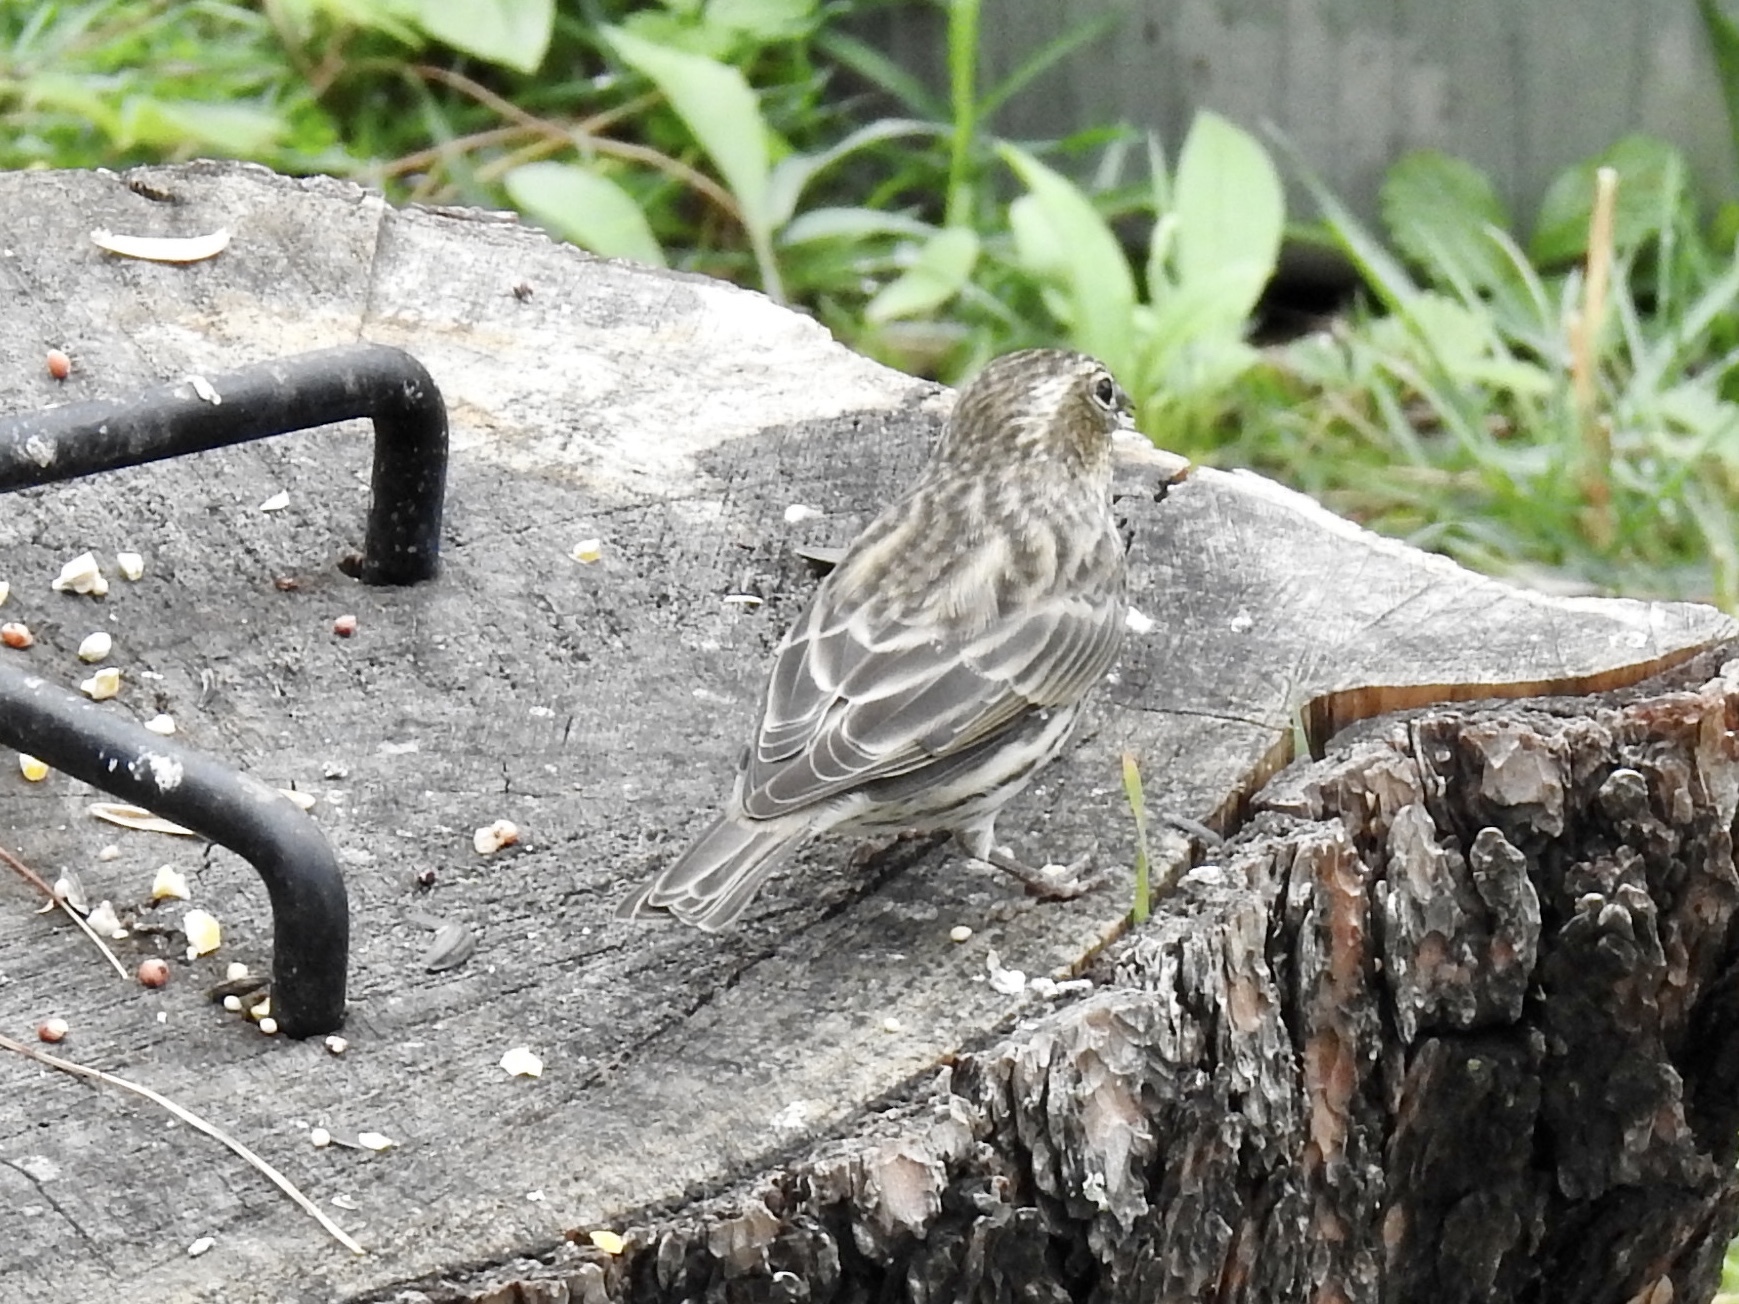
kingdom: Animalia
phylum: Chordata
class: Aves
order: Passeriformes
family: Fringillidae
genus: Haemorhous
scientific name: Haemorhous cassinii
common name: Cassin's finch
